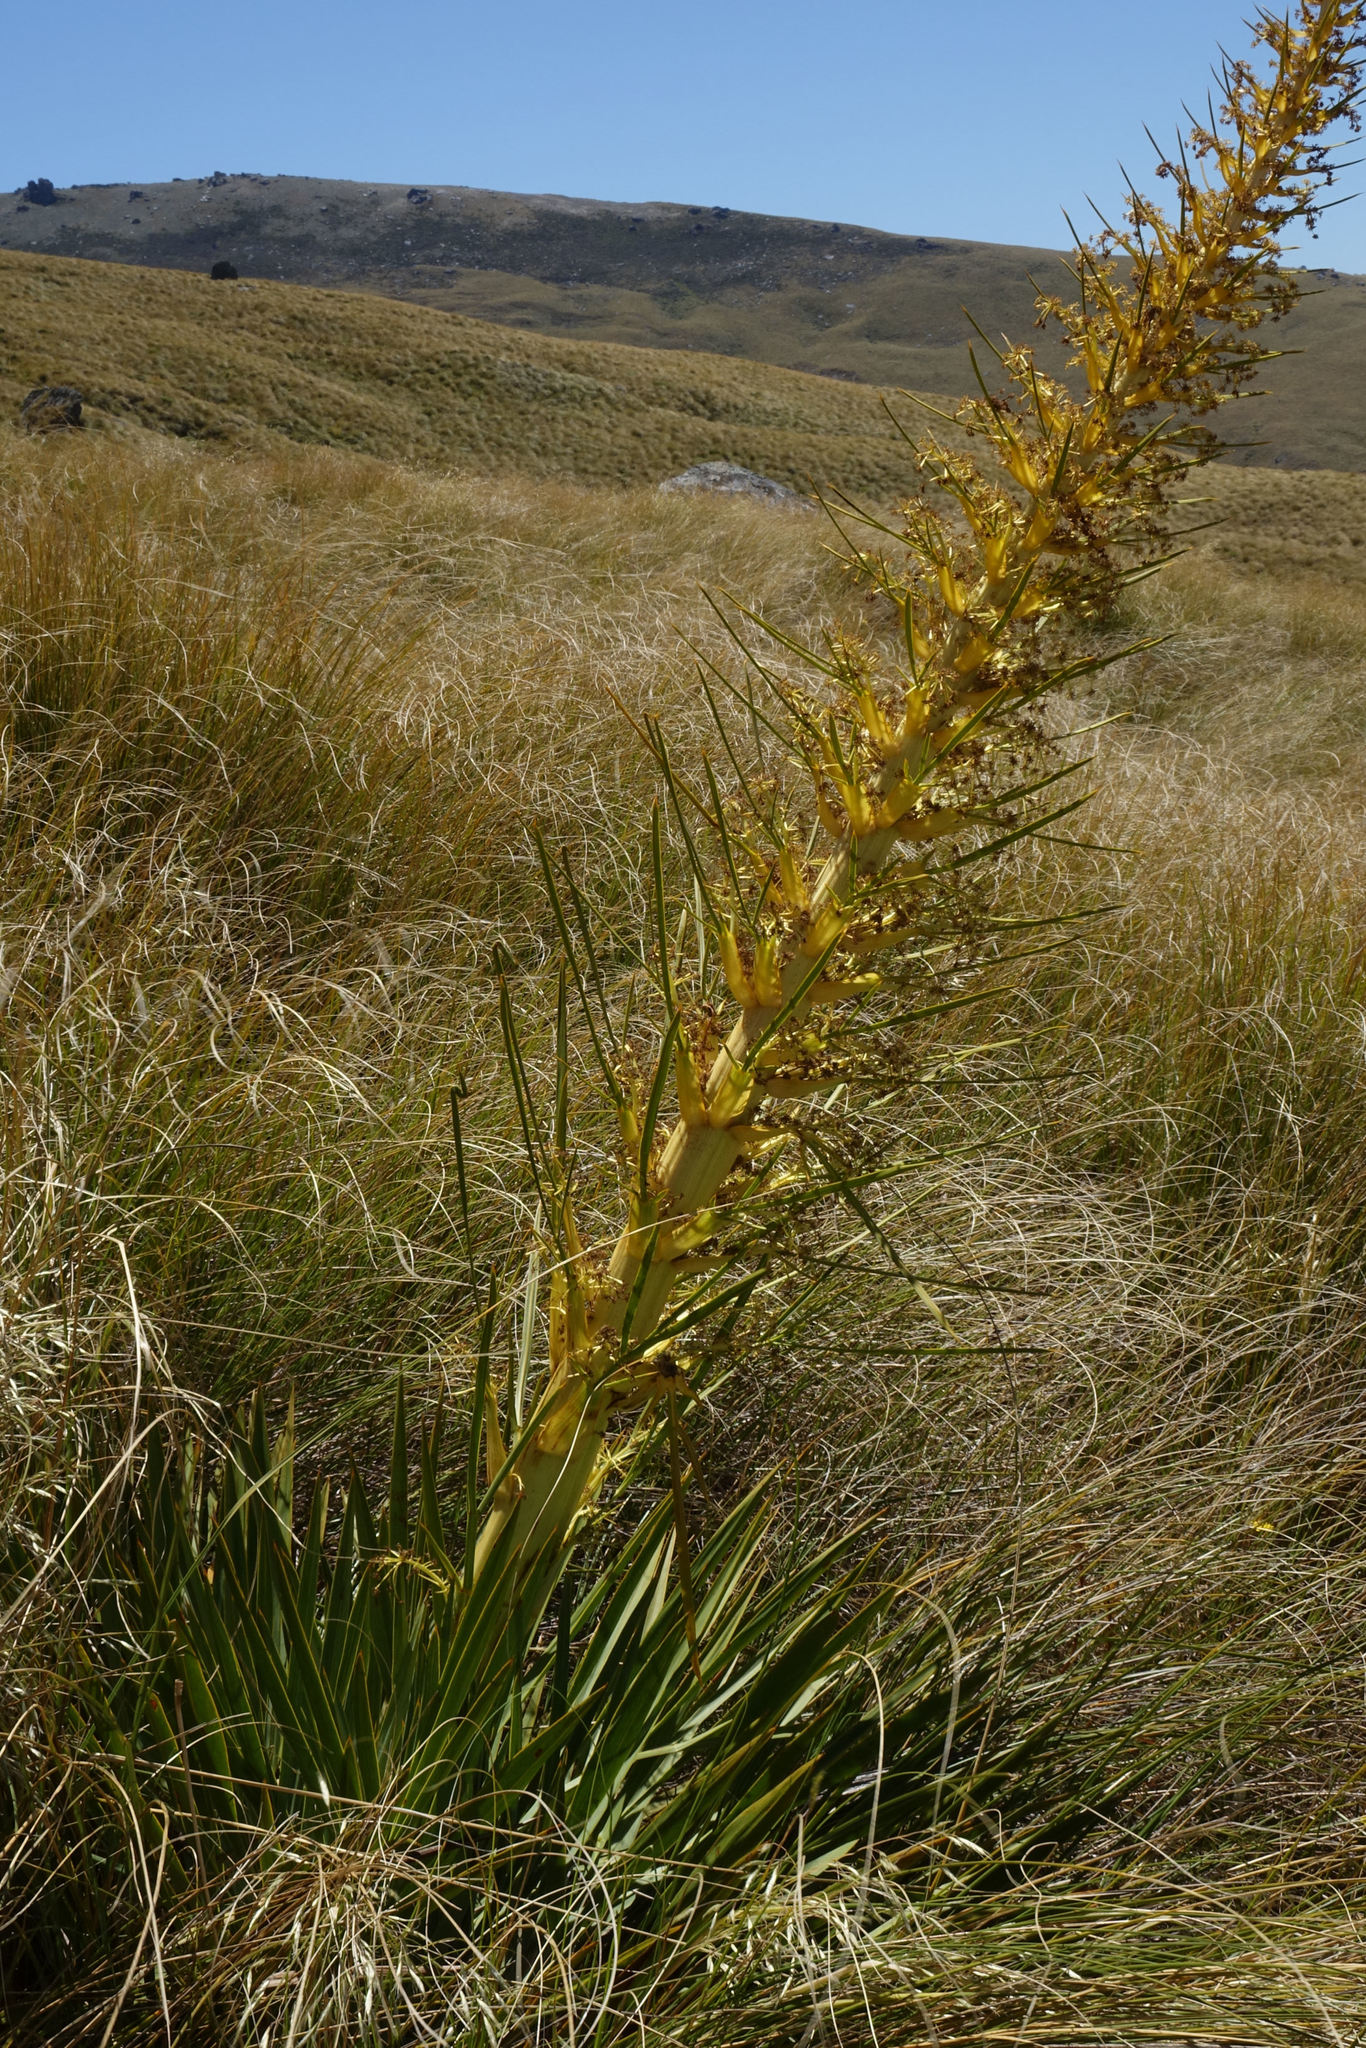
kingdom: Plantae
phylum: Tracheophyta
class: Magnoliopsida
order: Apiales
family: Apiaceae
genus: Aciphylla
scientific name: Aciphylla scott-thomsonii
